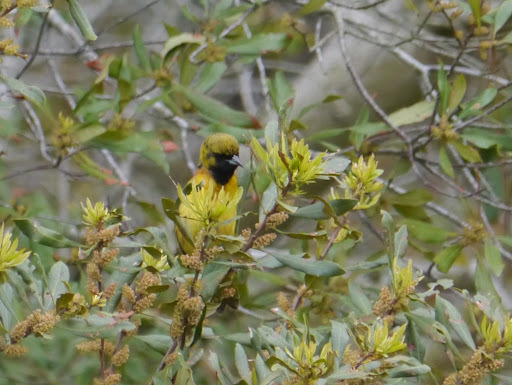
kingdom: Animalia
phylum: Chordata
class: Aves
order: Passeriformes
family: Icteridae
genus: Icterus
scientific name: Icterus spurius
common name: Orchard oriole
